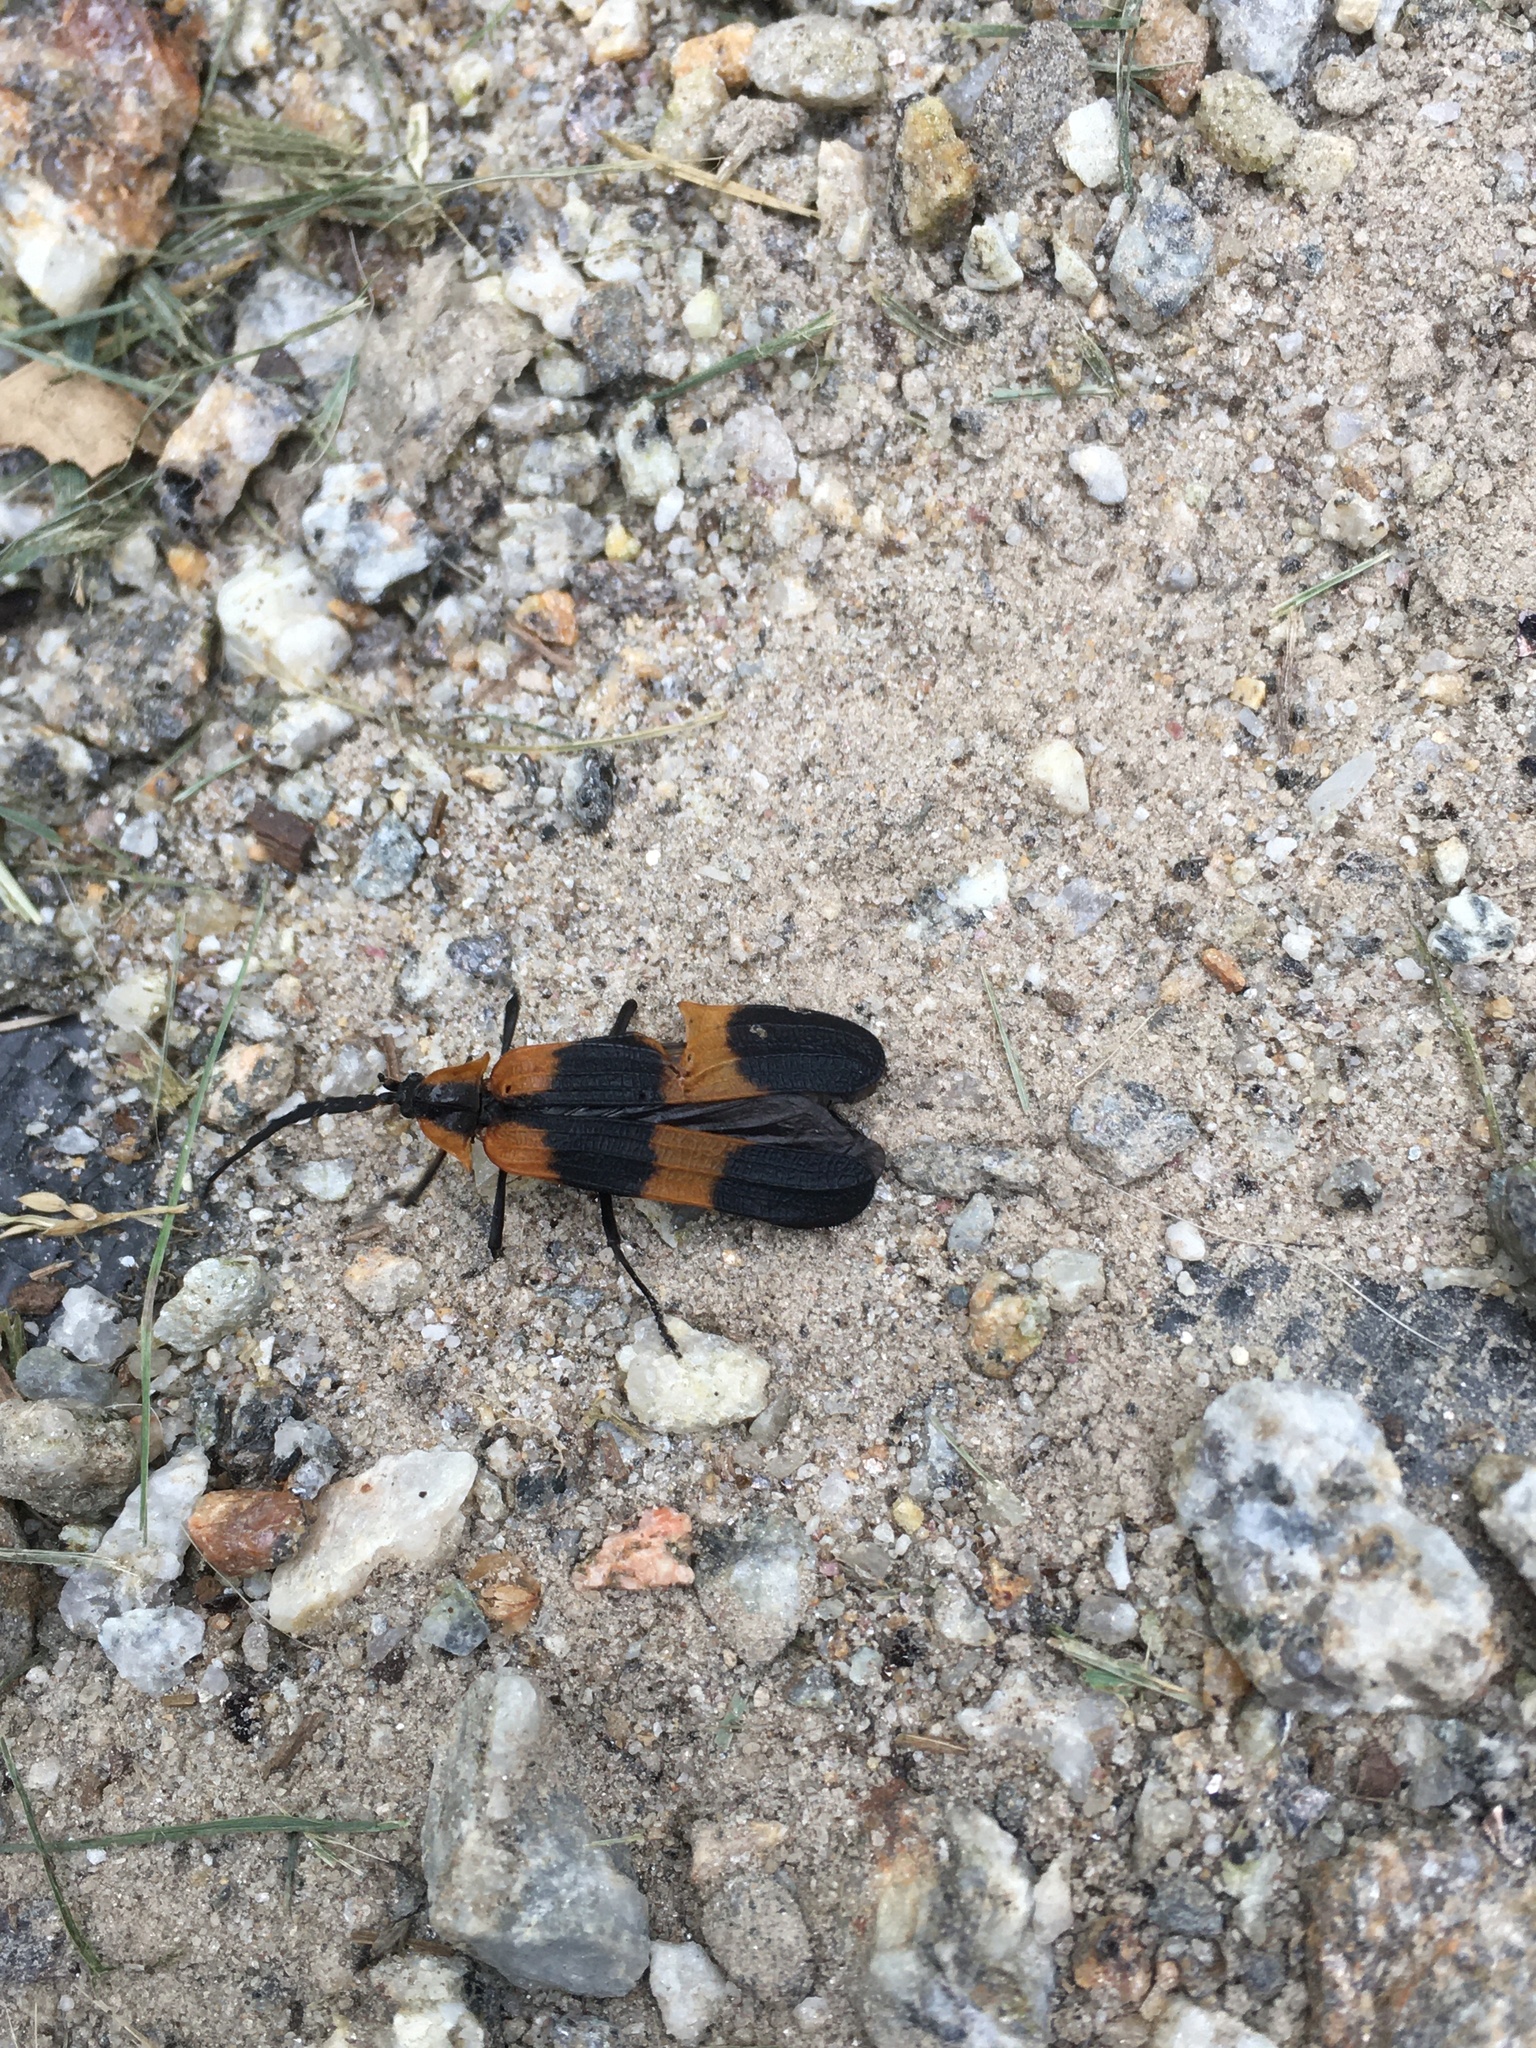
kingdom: Animalia
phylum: Arthropoda
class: Insecta
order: Coleoptera
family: Lycidae
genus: Calopteron
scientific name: Calopteron reticulatum
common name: Banded net-winged beetle
